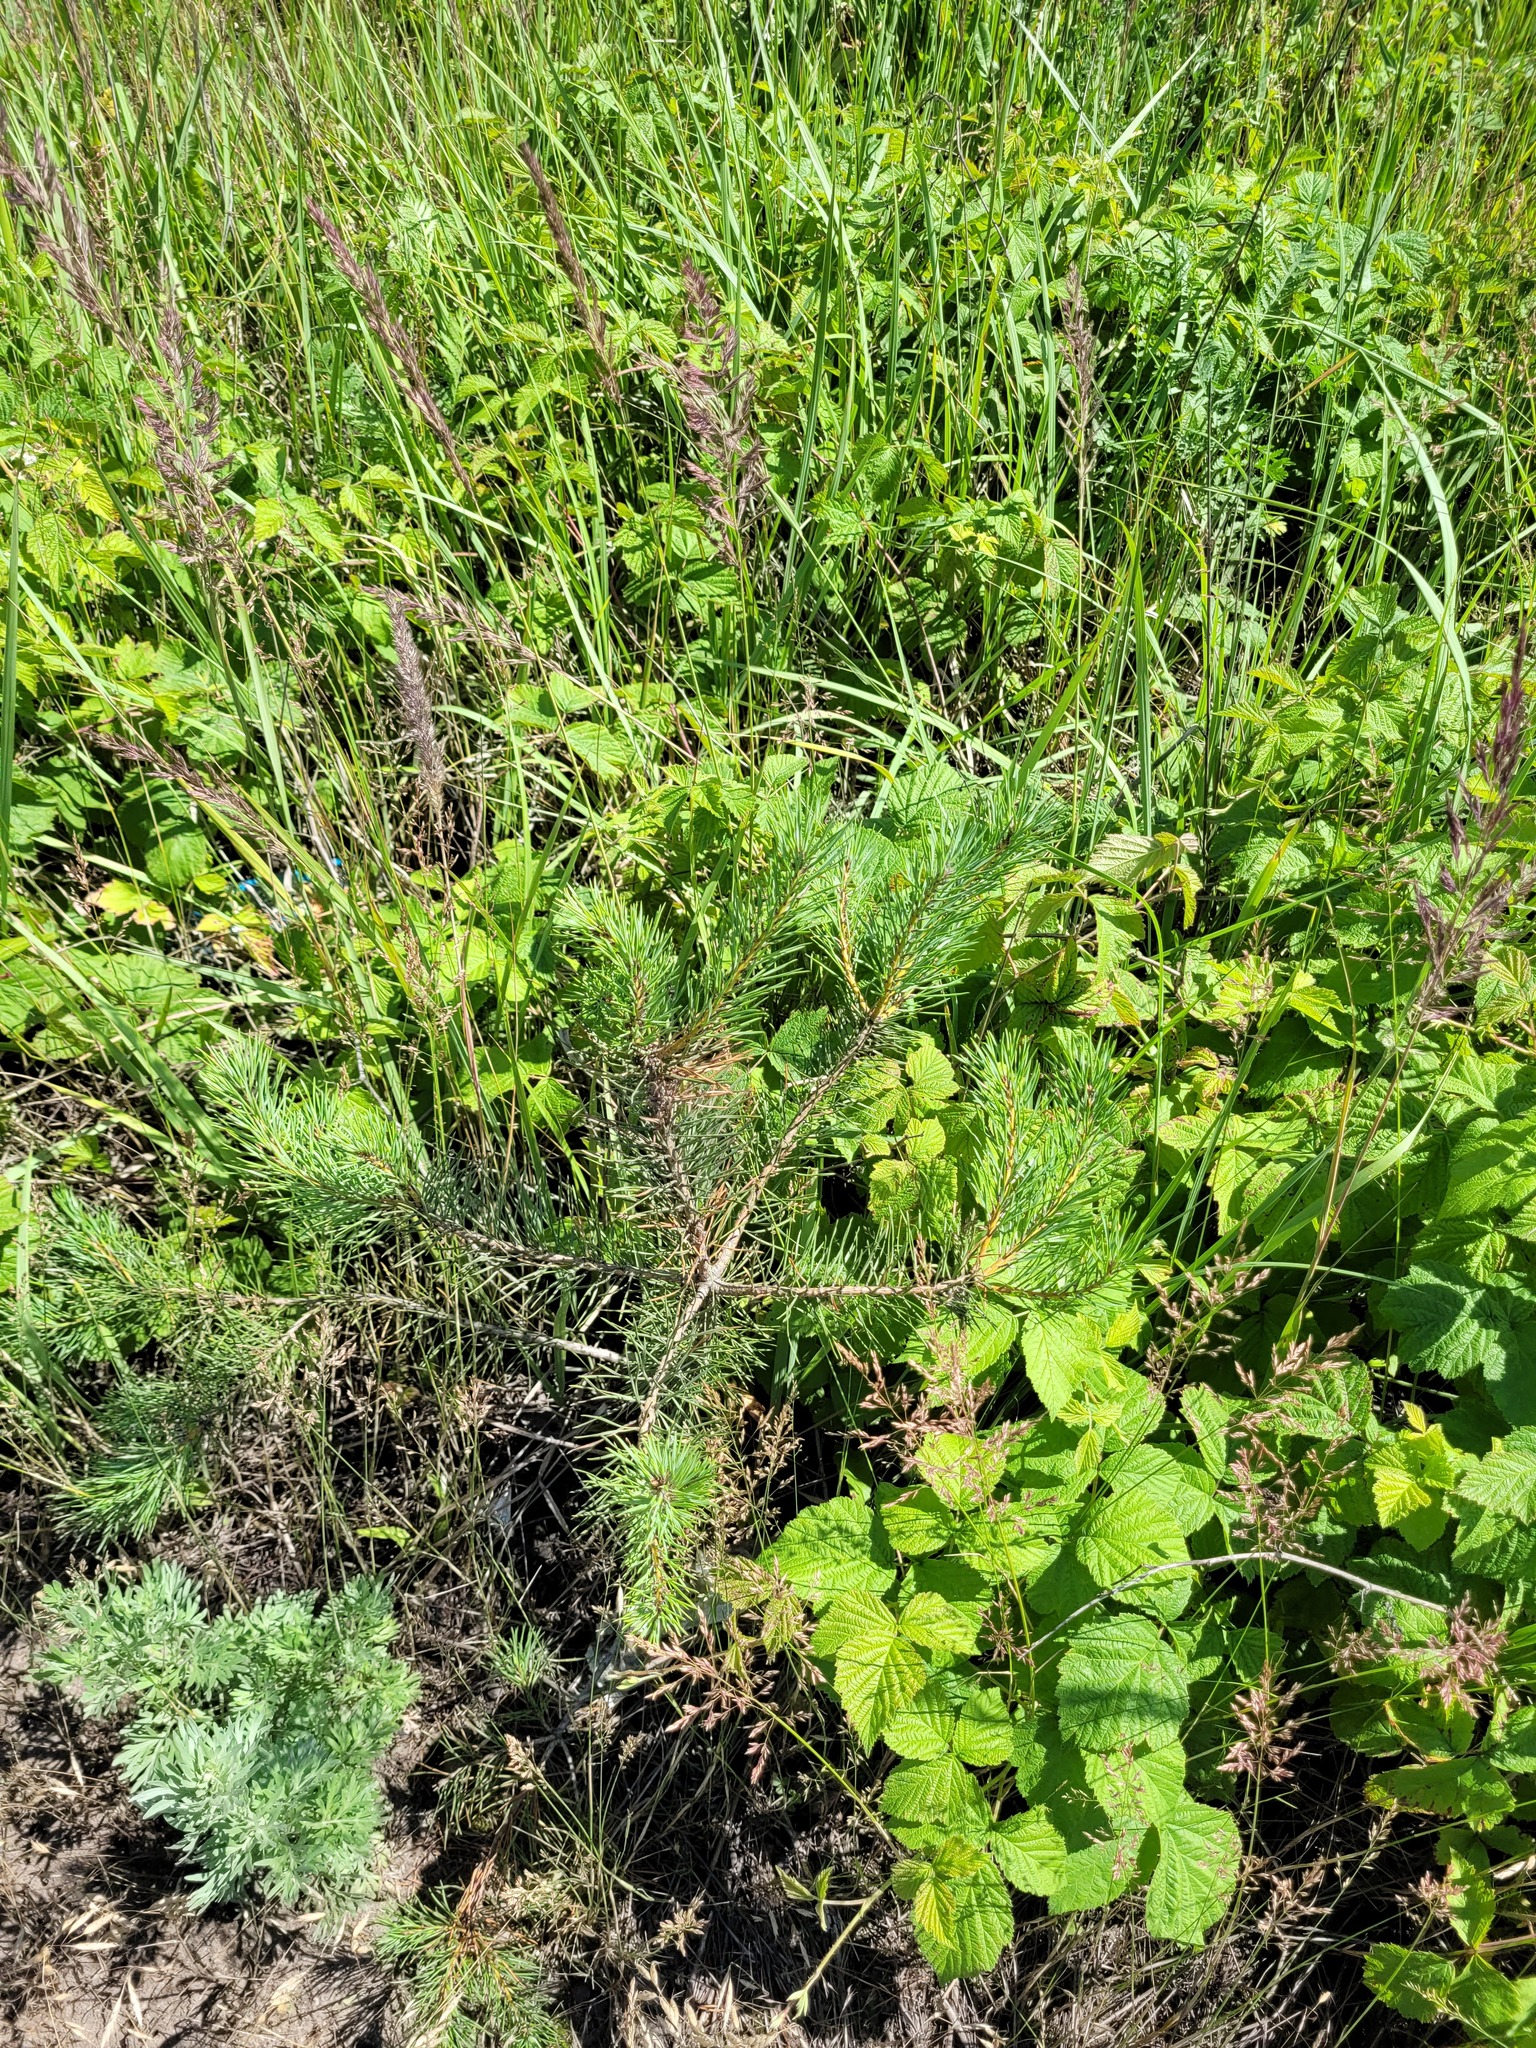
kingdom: Plantae
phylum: Tracheophyta
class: Pinopsida
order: Pinales
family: Pinaceae
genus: Pinus
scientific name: Pinus sylvestris
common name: Scots pine
